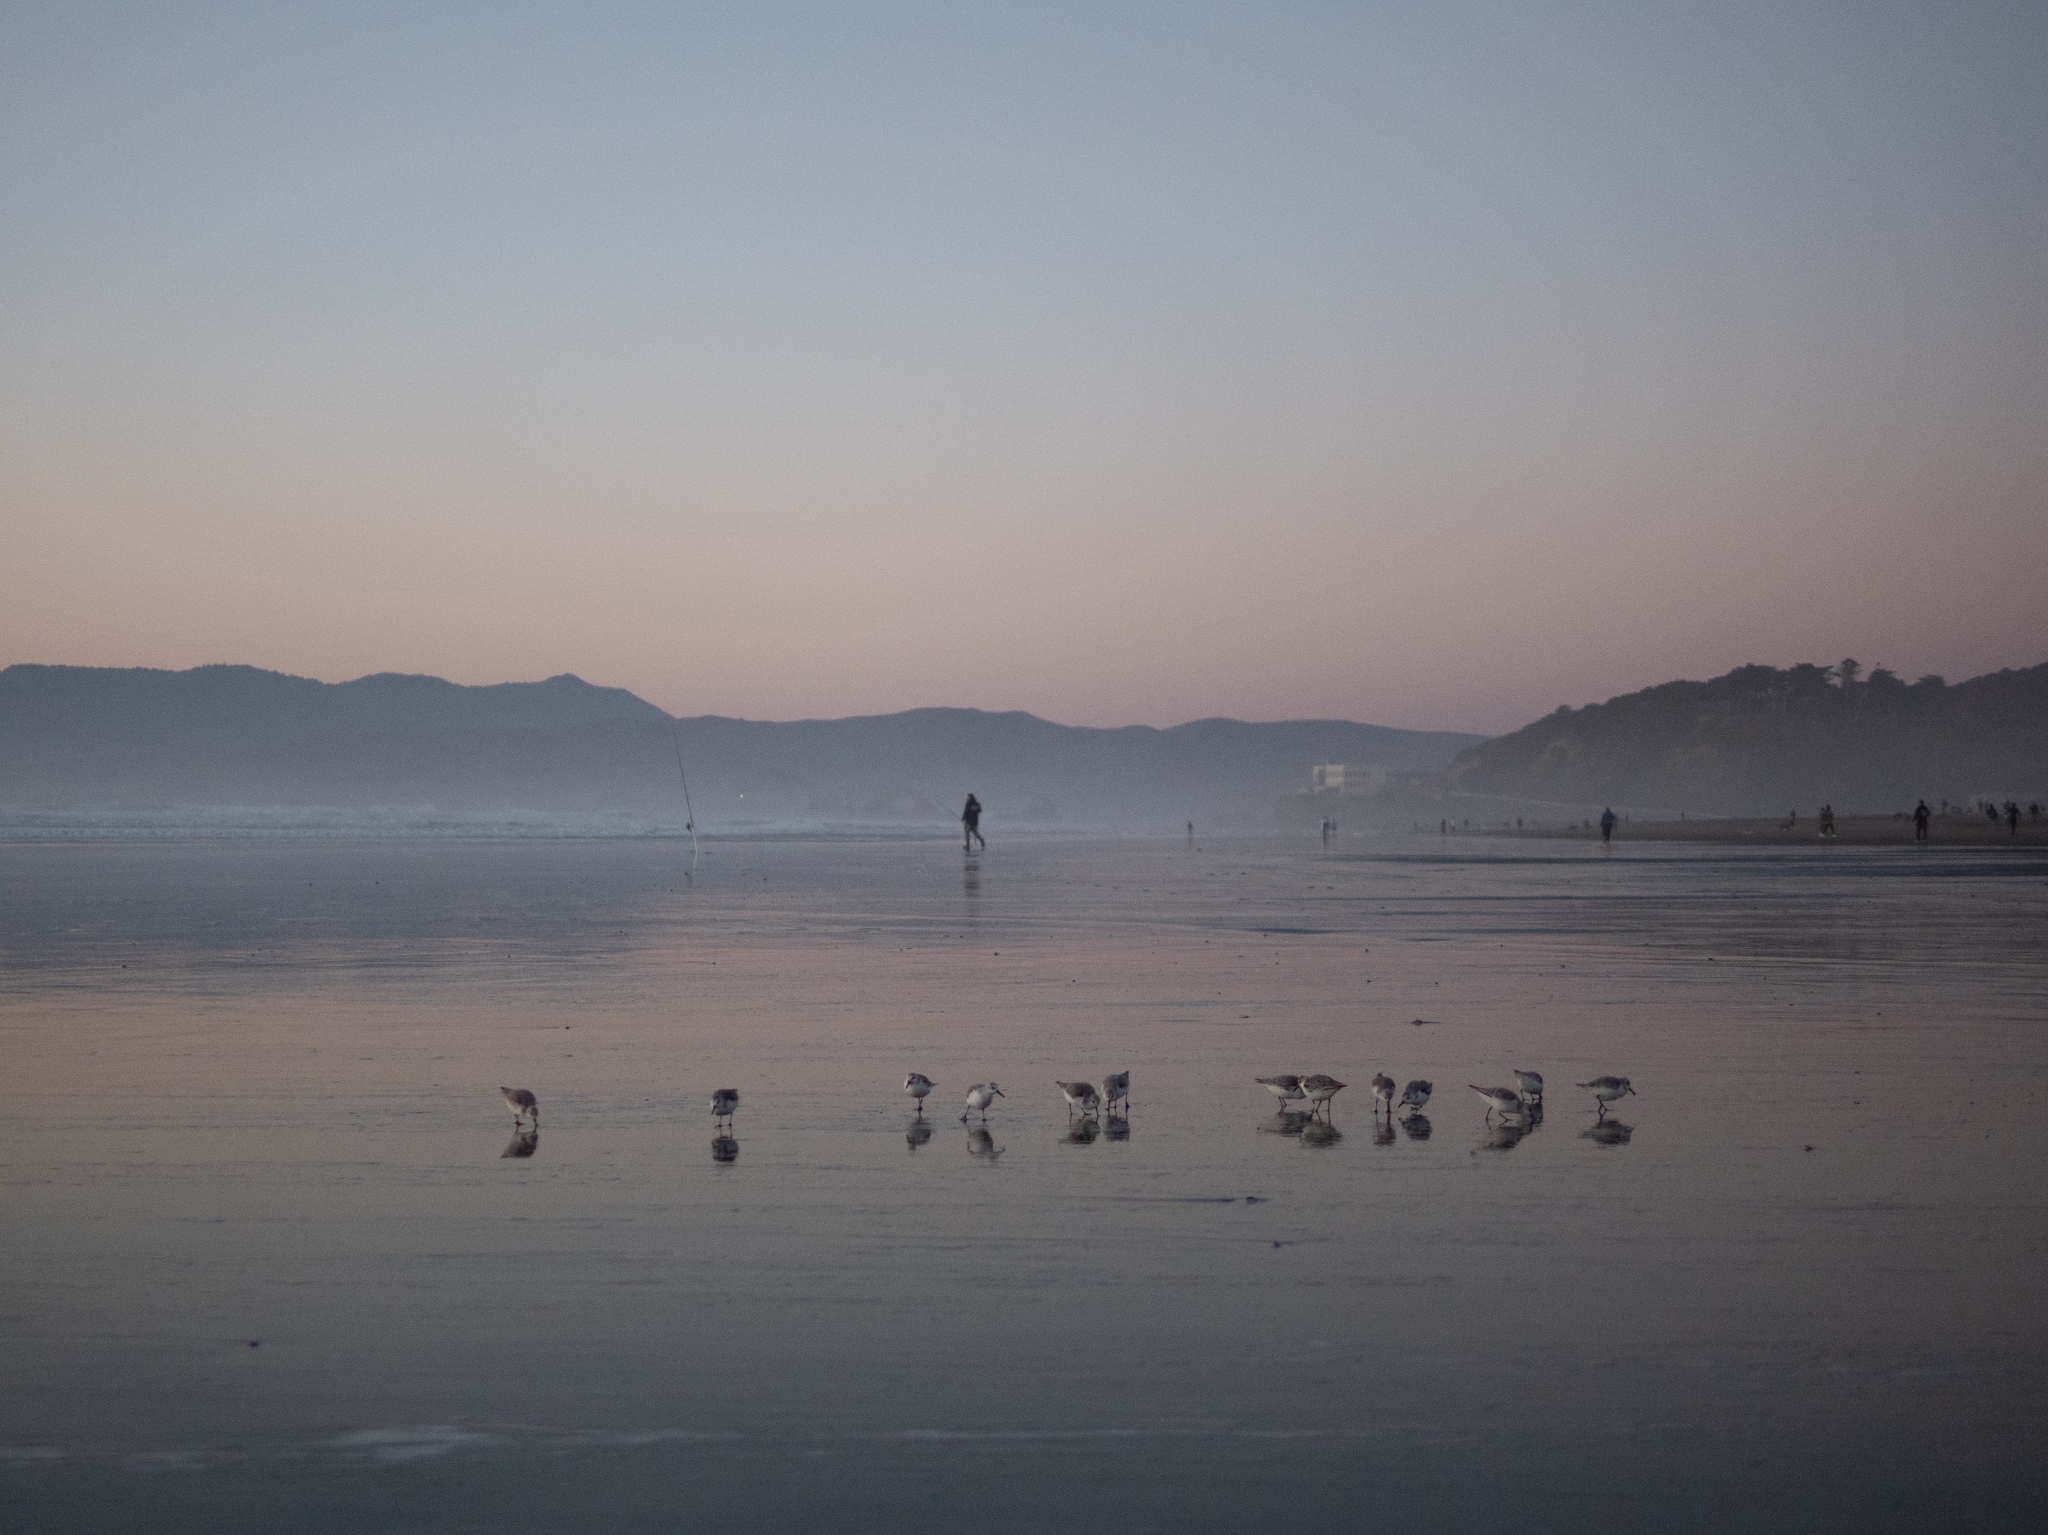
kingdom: Animalia
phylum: Chordata
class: Aves
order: Charadriiformes
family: Scolopacidae
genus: Calidris
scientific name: Calidris alba
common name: Sanderling
